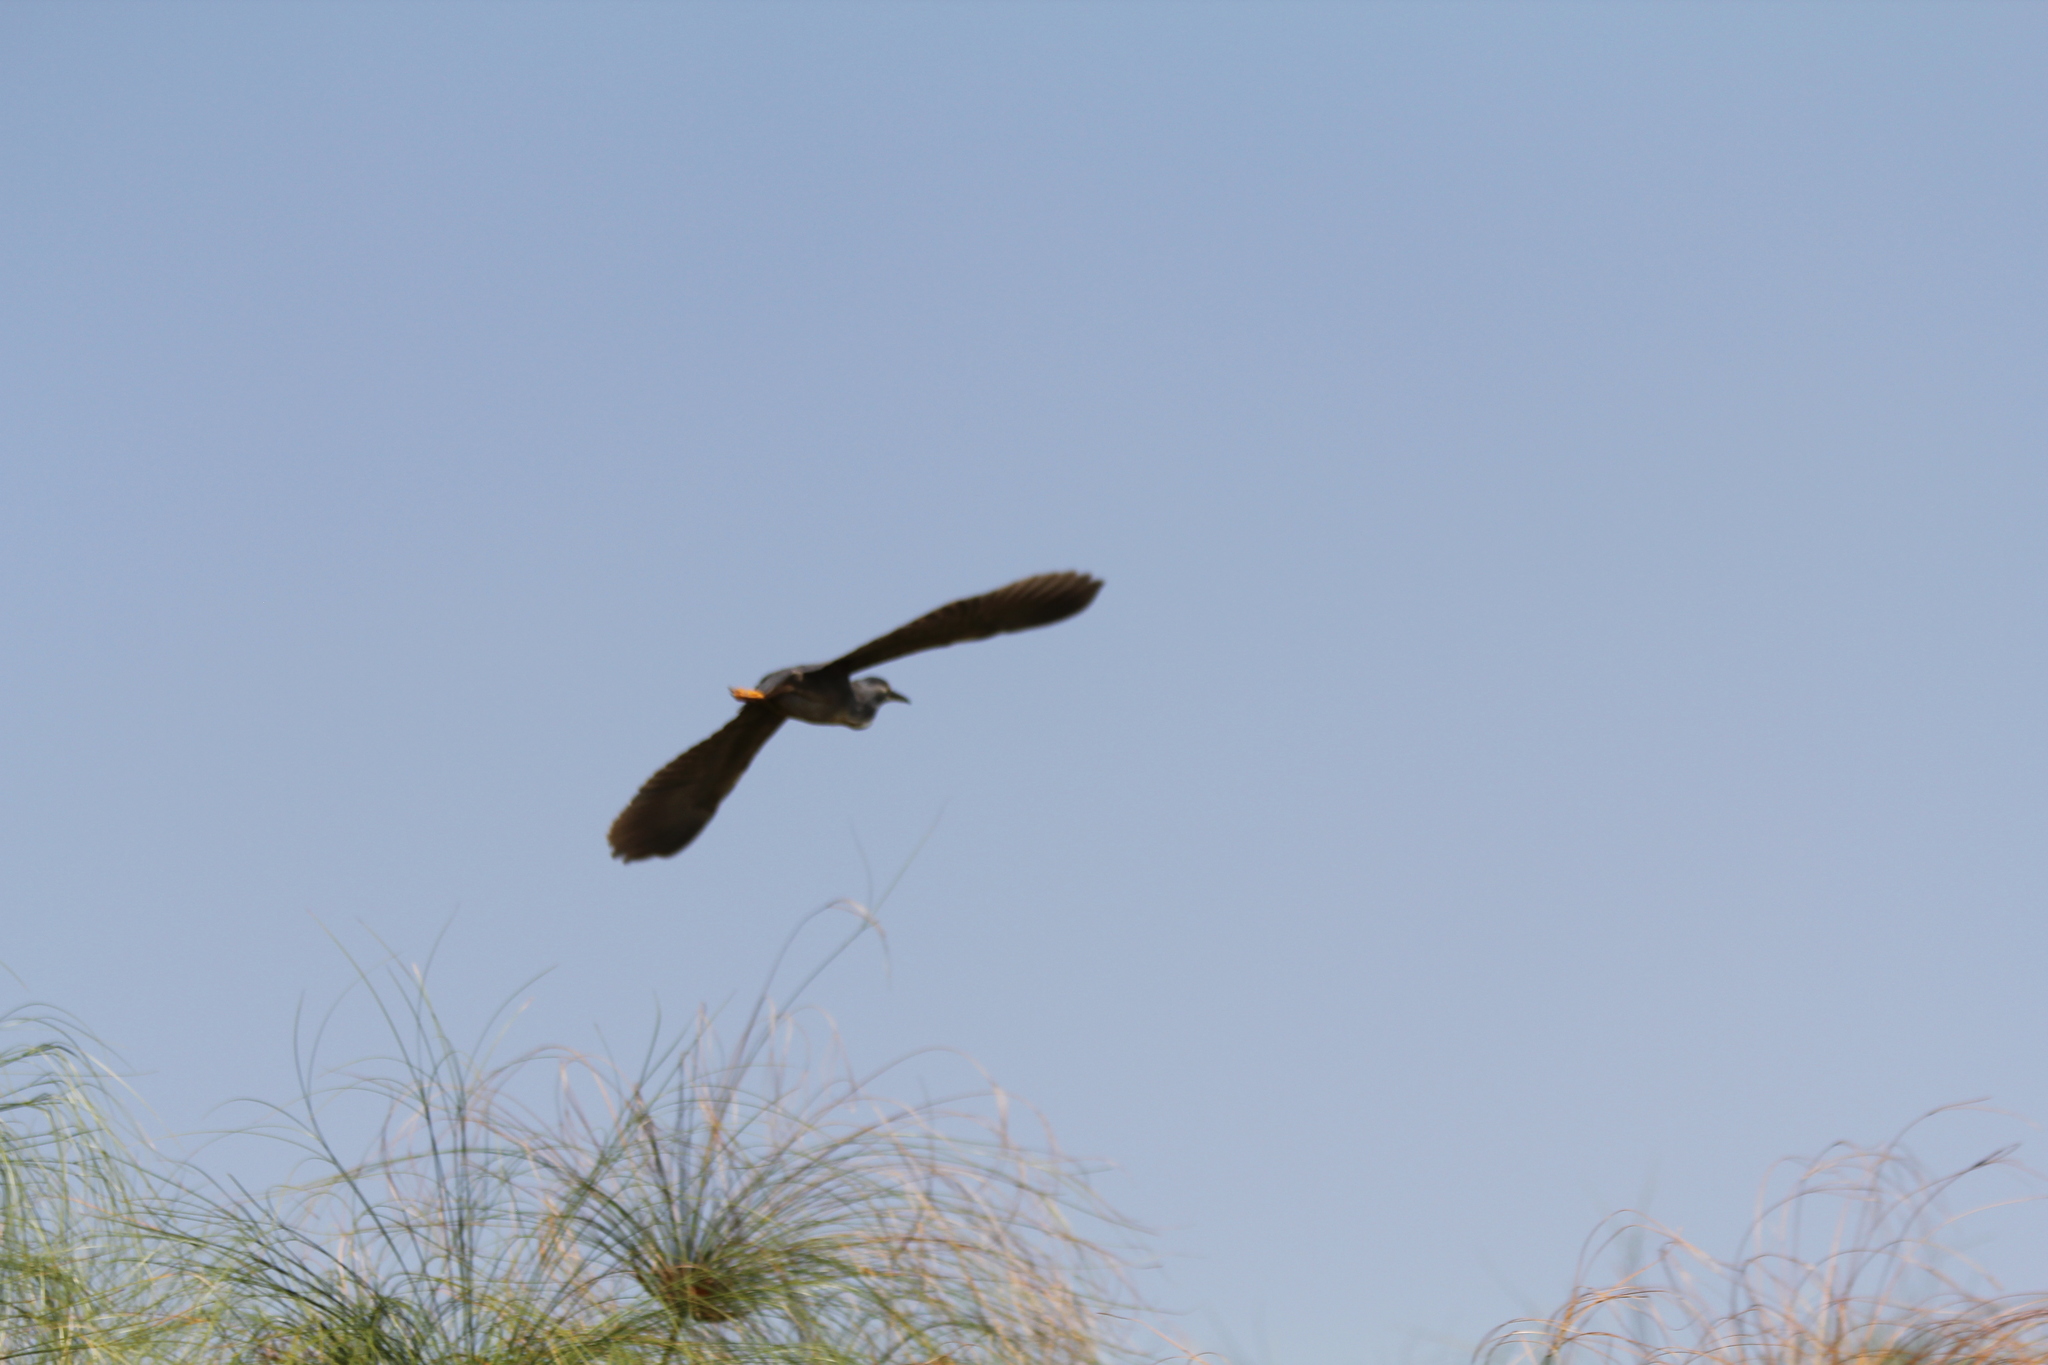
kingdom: Animalia
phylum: Chordata
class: Aves
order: Pelecaniformes
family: Ardeidae
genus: Butorides
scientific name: Butorides striata
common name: Striated heron
